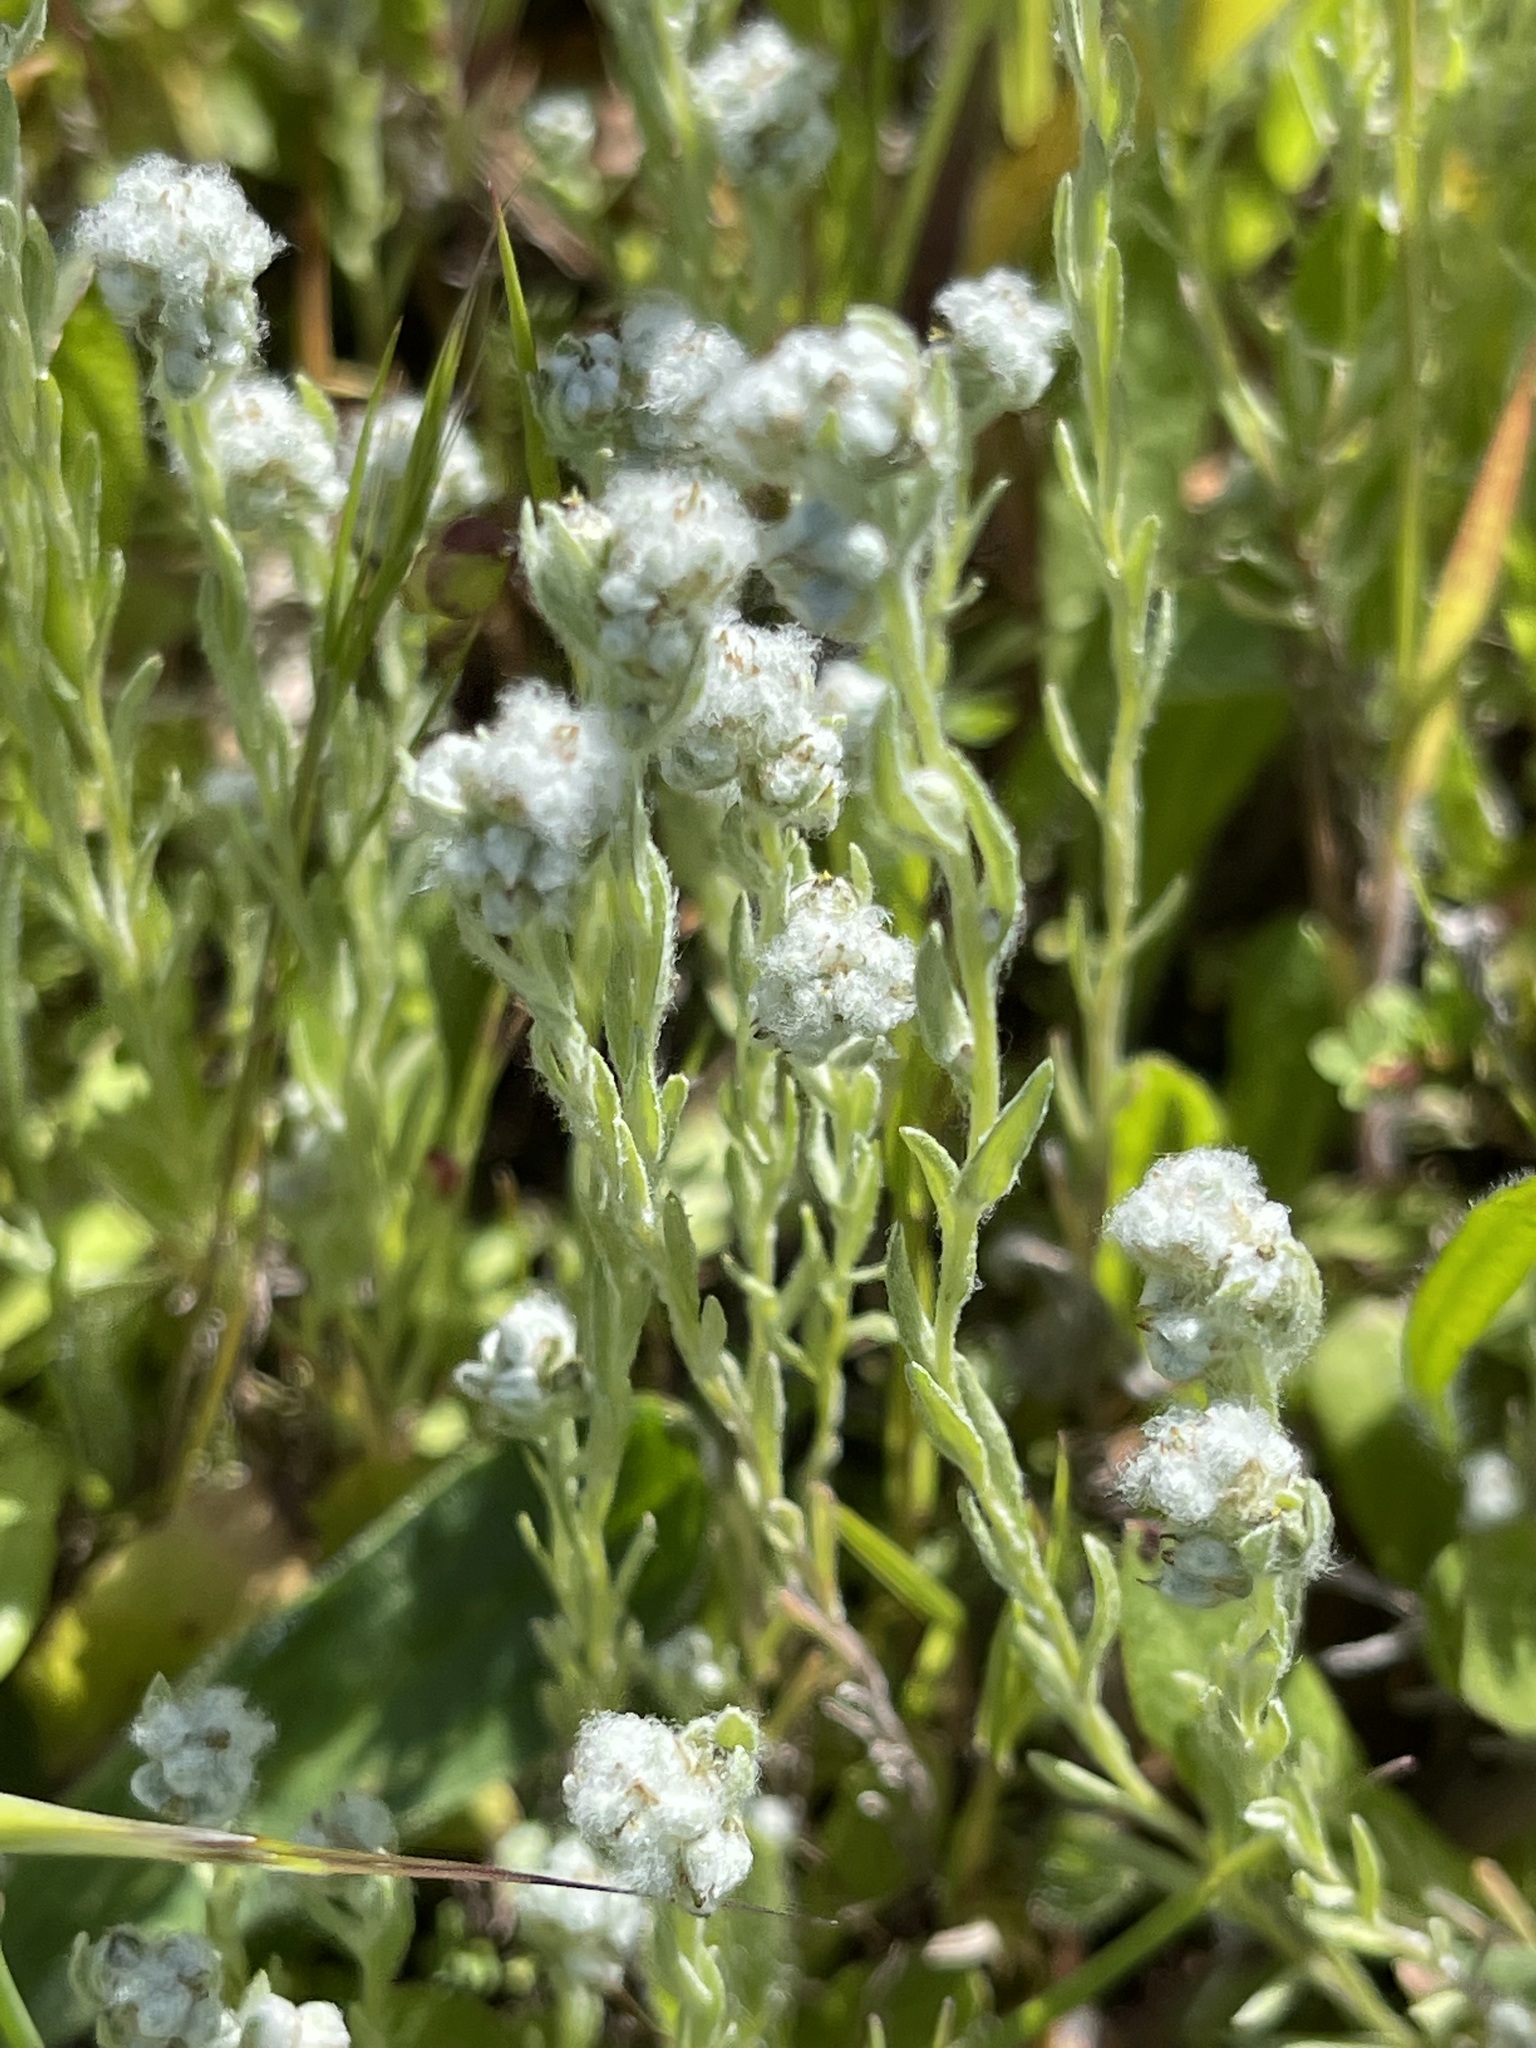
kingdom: Plantae
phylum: Tracheophyta
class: Magnoliopsida
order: Asterales
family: Asteraceae
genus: Bombycilaena
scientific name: Bombycilaena californica
